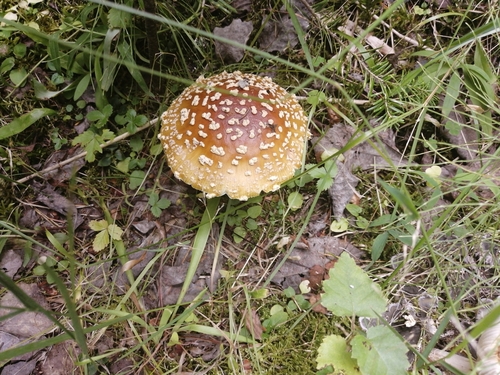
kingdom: Fungi
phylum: Basidiomycota
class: Agaricomycetes
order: Agaricales
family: Amanitaceae
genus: Amanita
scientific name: Amanita regalis
